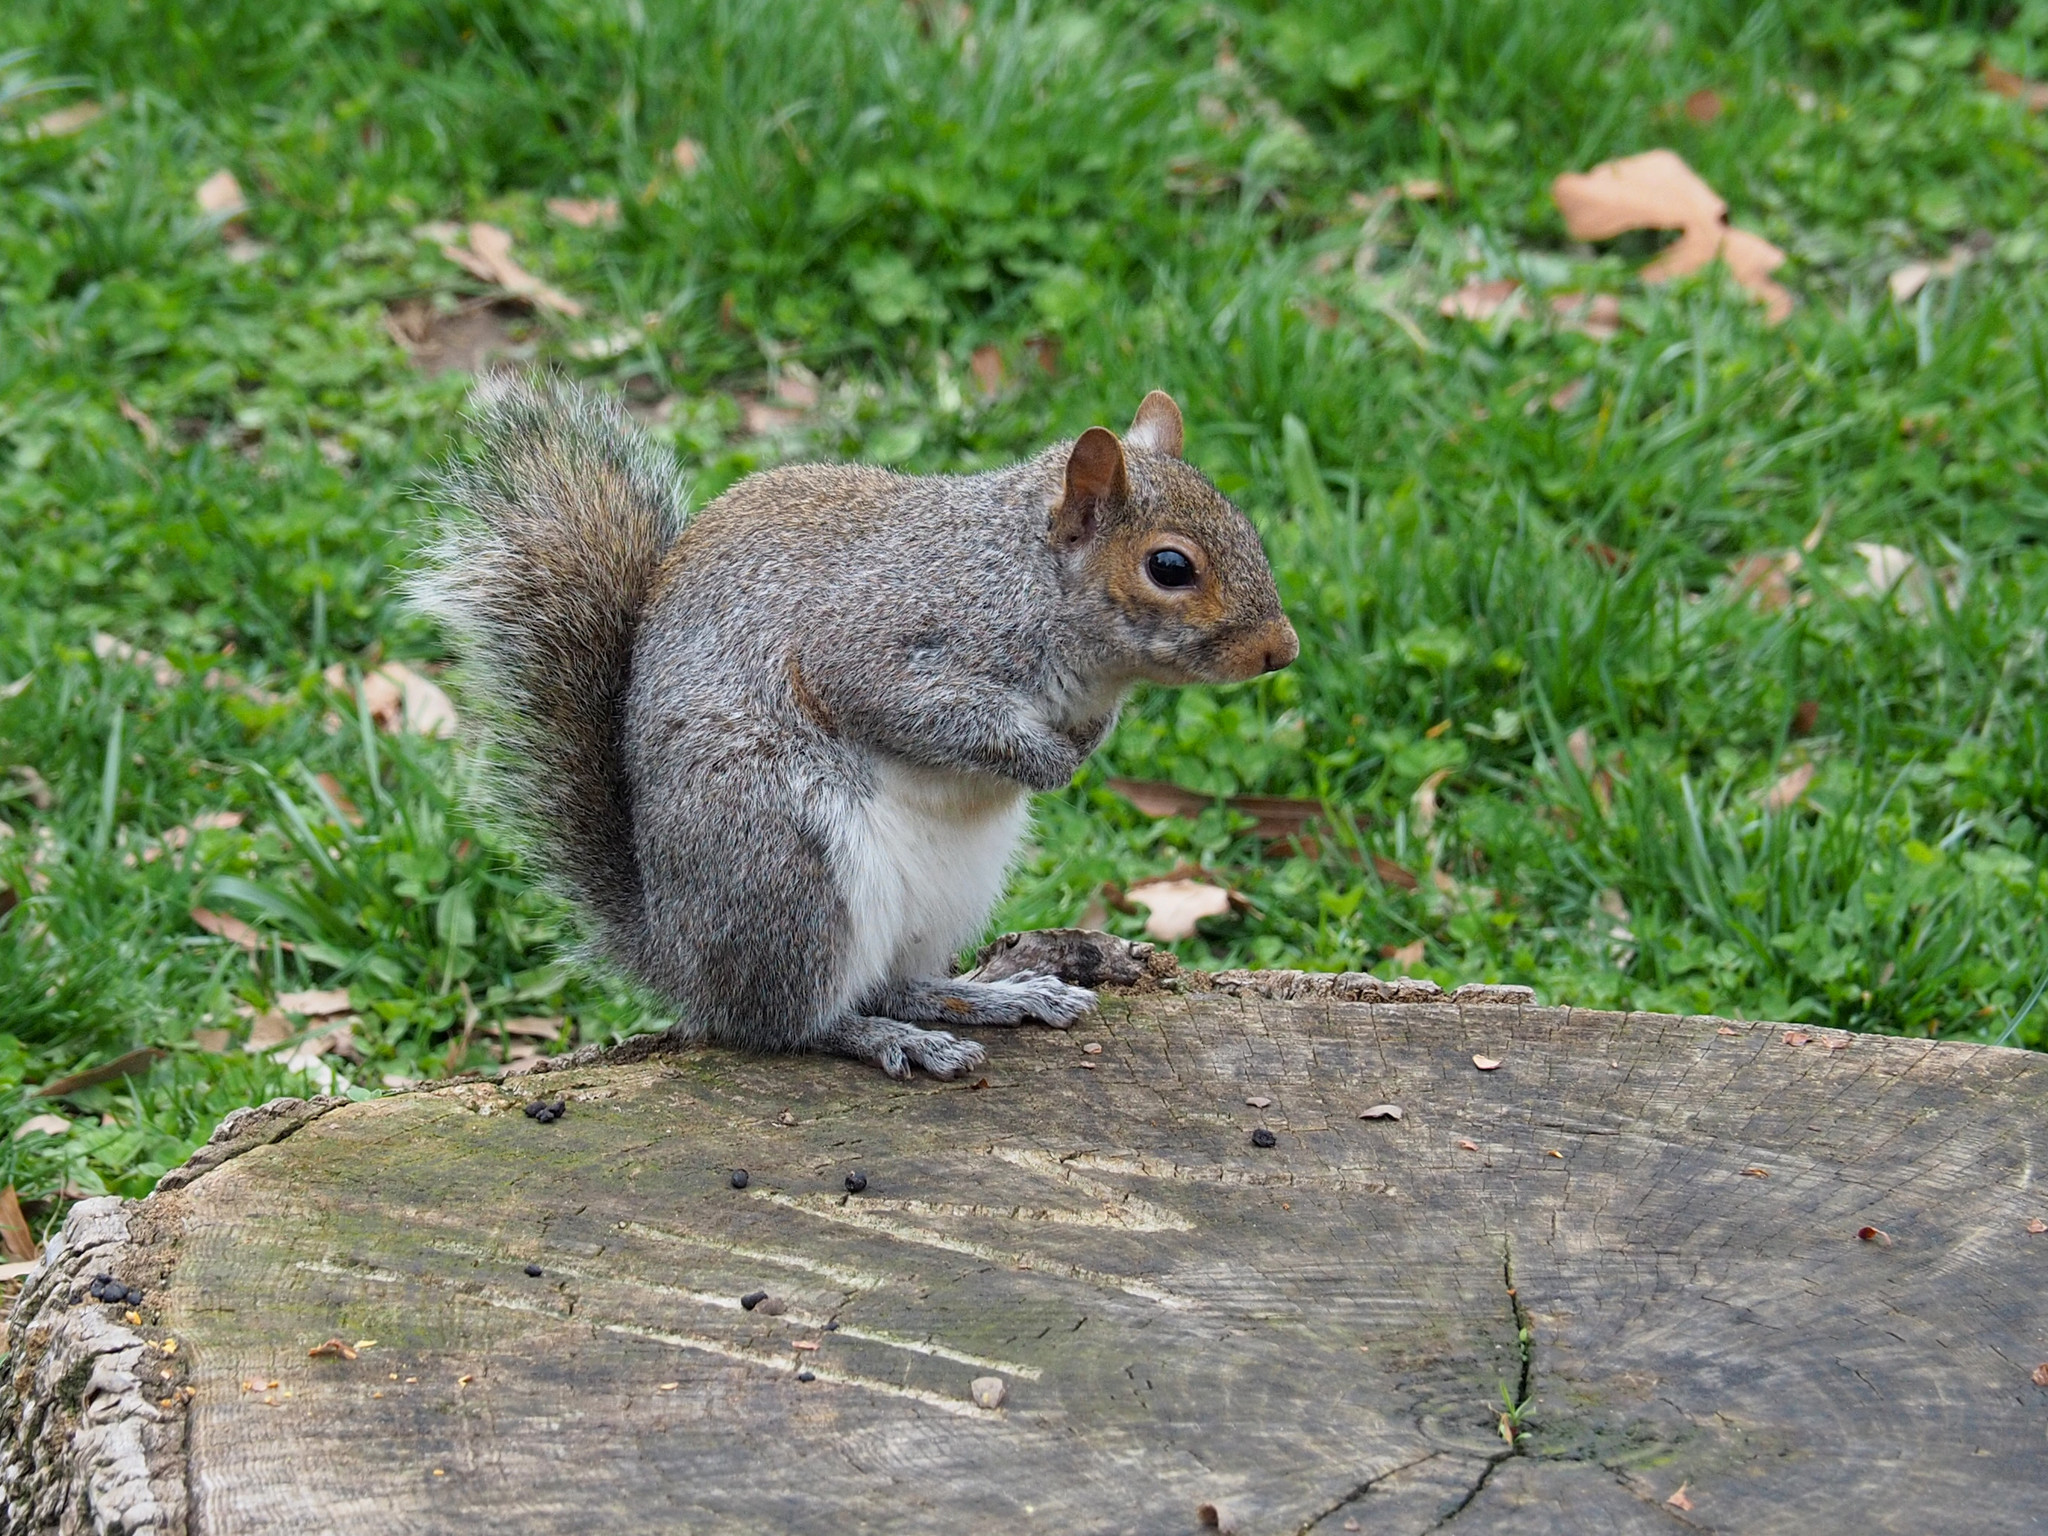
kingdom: Animalia
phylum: Chordata
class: Mammalia
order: Rodentia
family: Sciuridae
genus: Sciurus
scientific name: Sciurus carolinensis
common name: Eastern gray squirrel
